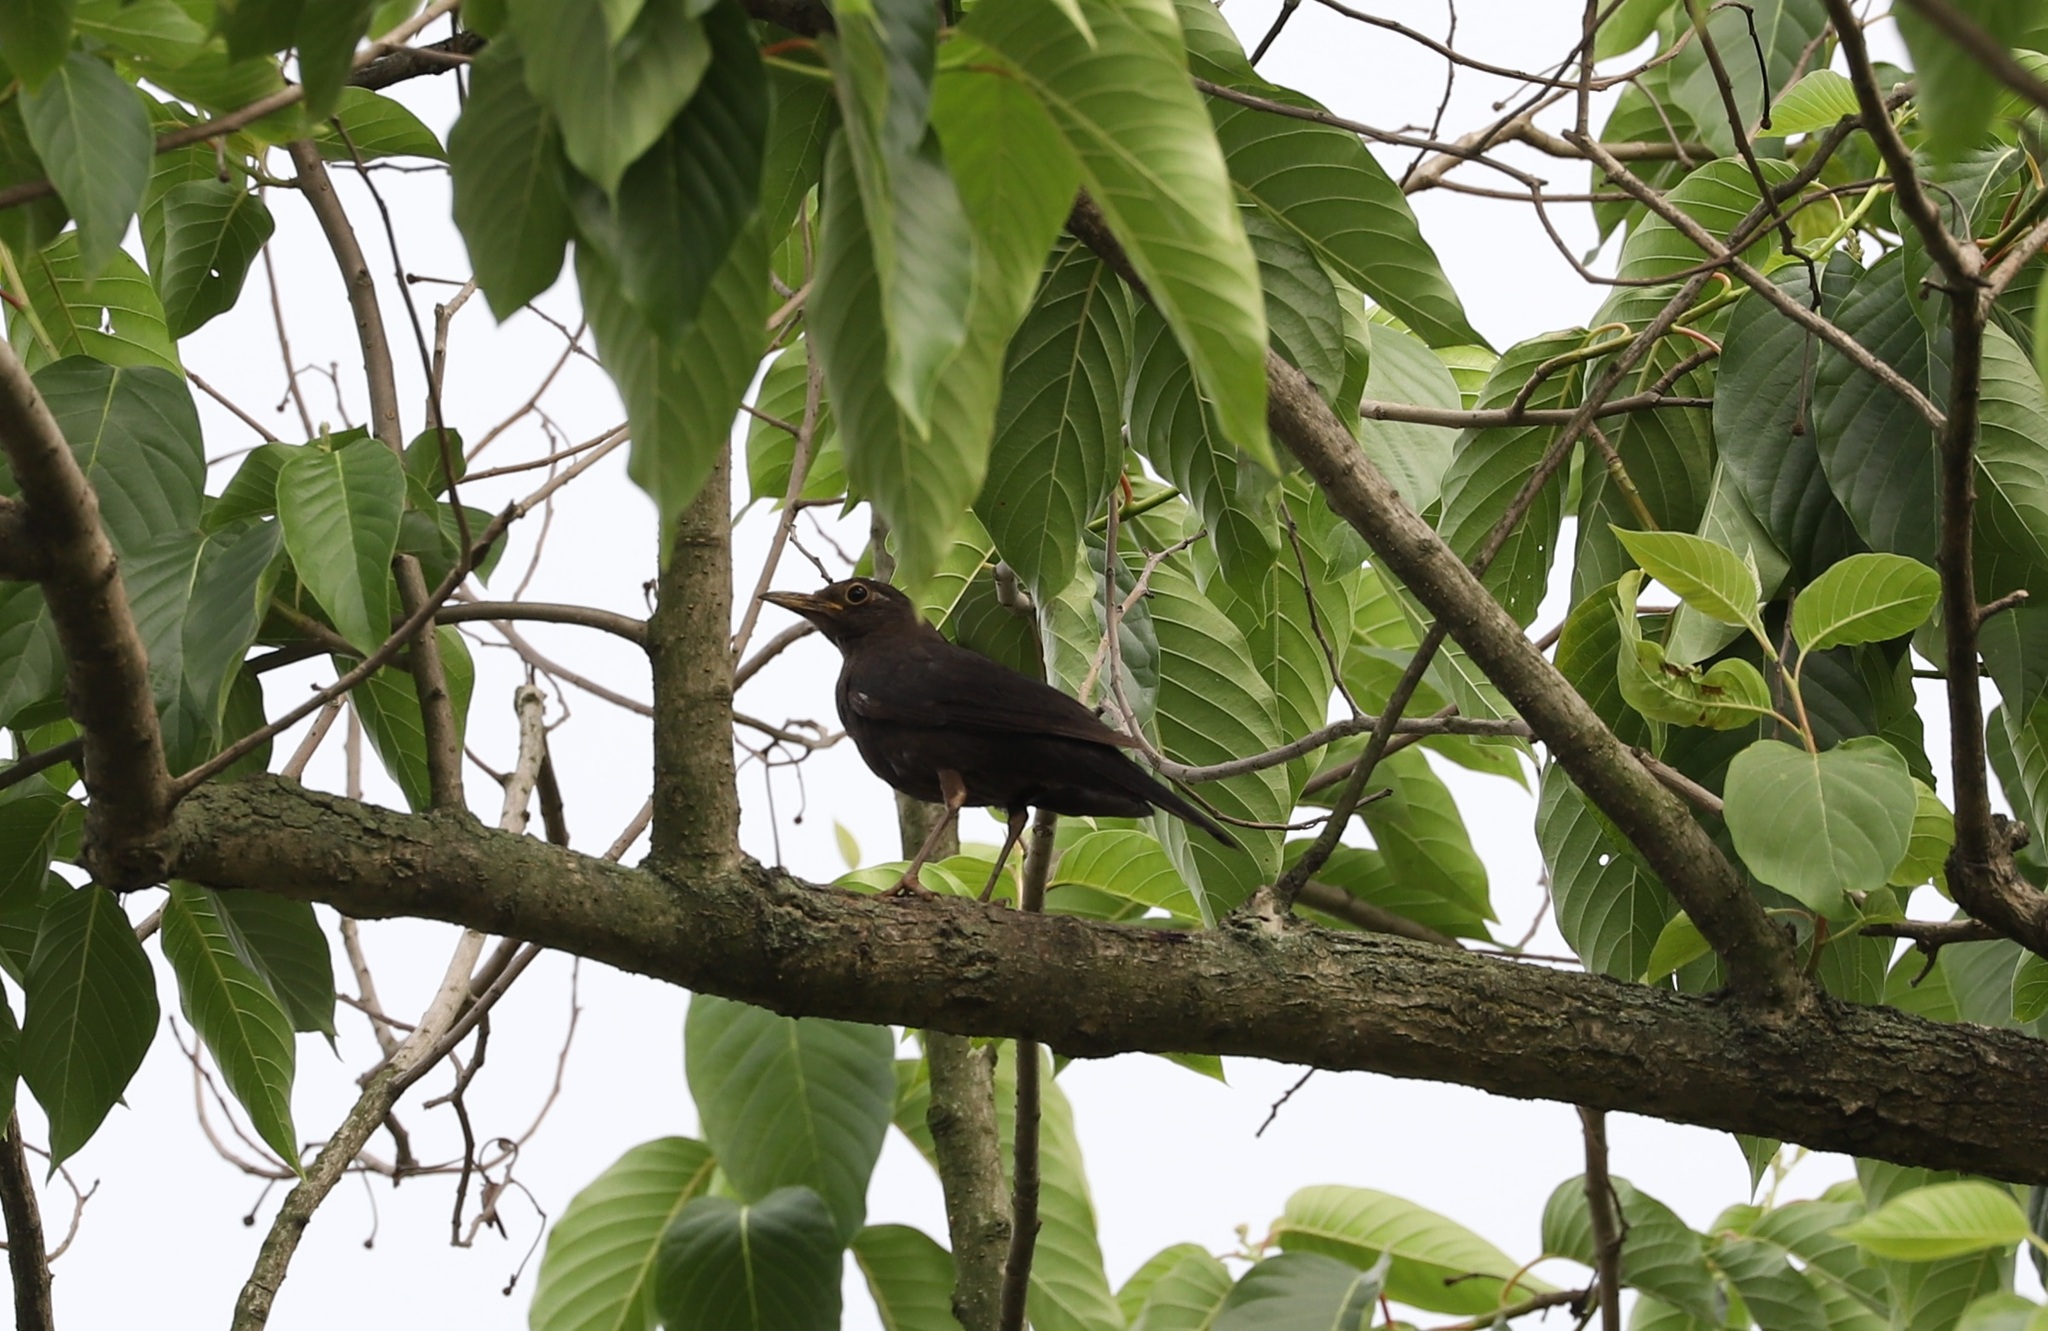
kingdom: Animalia
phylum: Chordata
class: Aves
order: Passeriformes
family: Turdidae
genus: Turdus
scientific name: Turdus mandarinus
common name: Chinese blackbird
